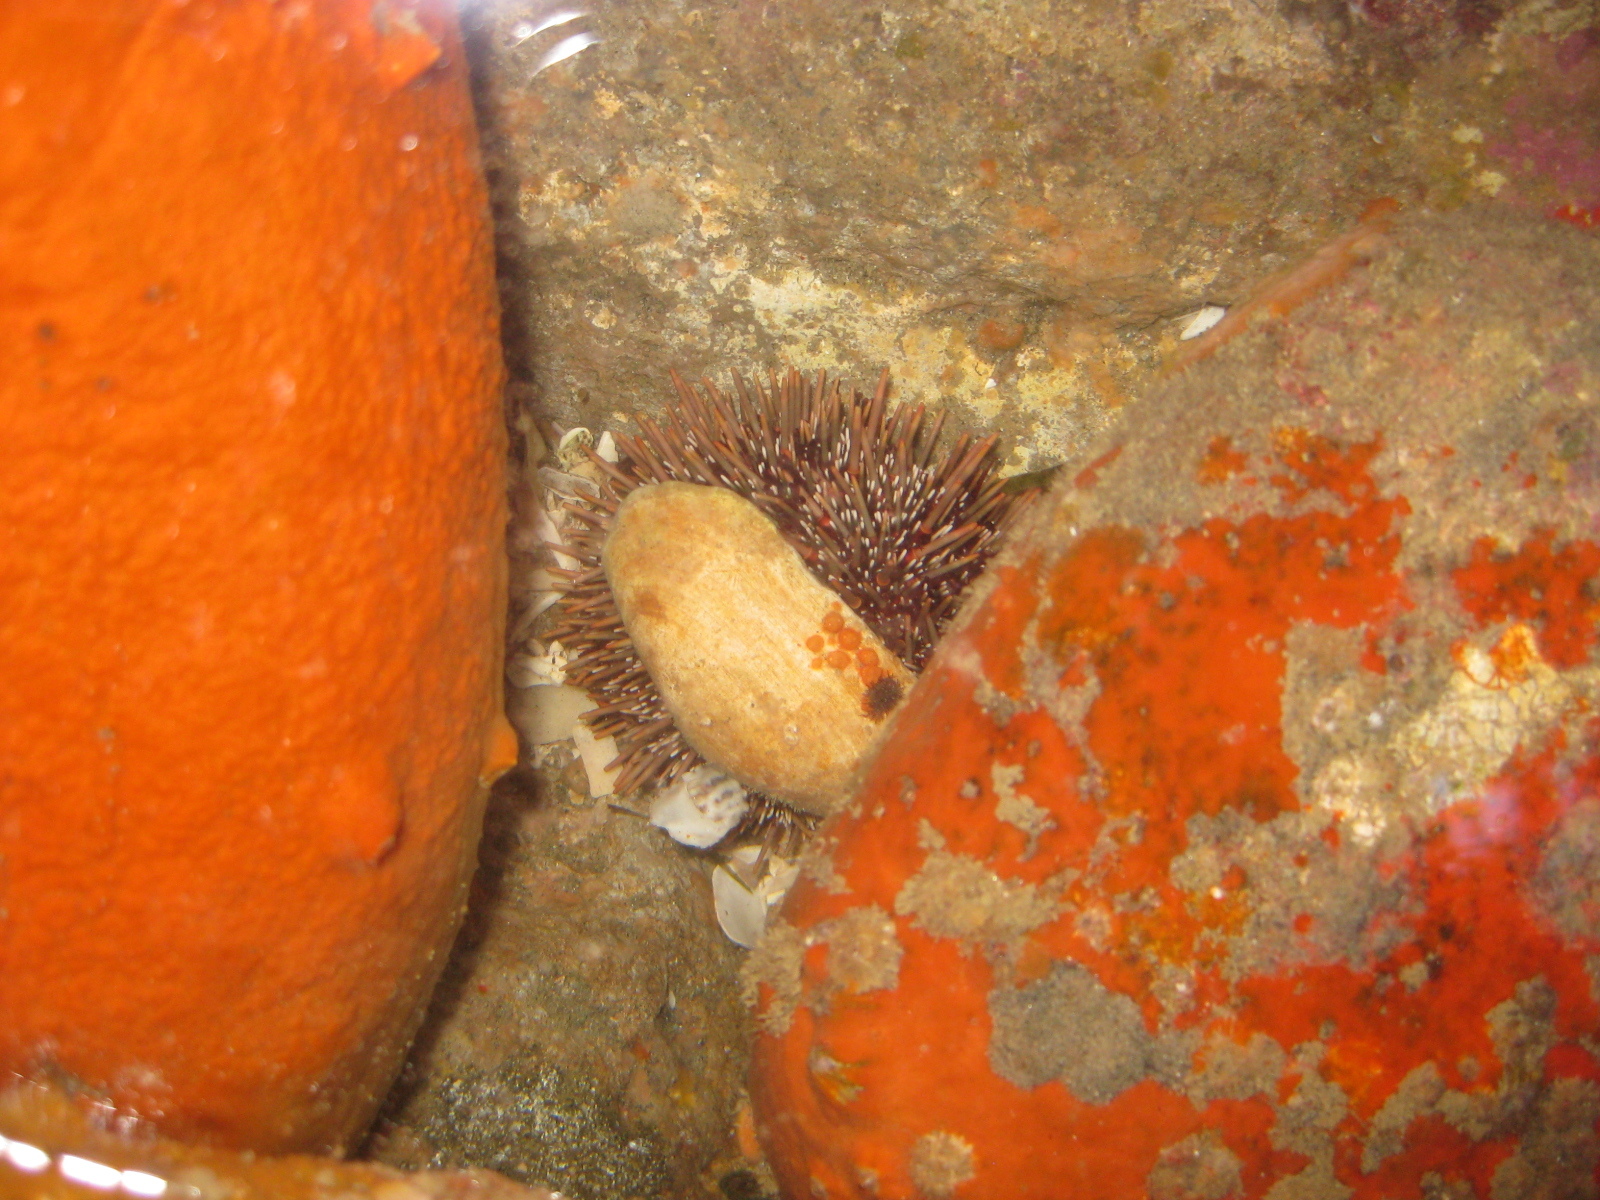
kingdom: Animalia
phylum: Echinodermata
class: Echinoidea
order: Camarodonta
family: Echinometridae
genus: Evechinus
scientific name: Evechinus chloroticus
